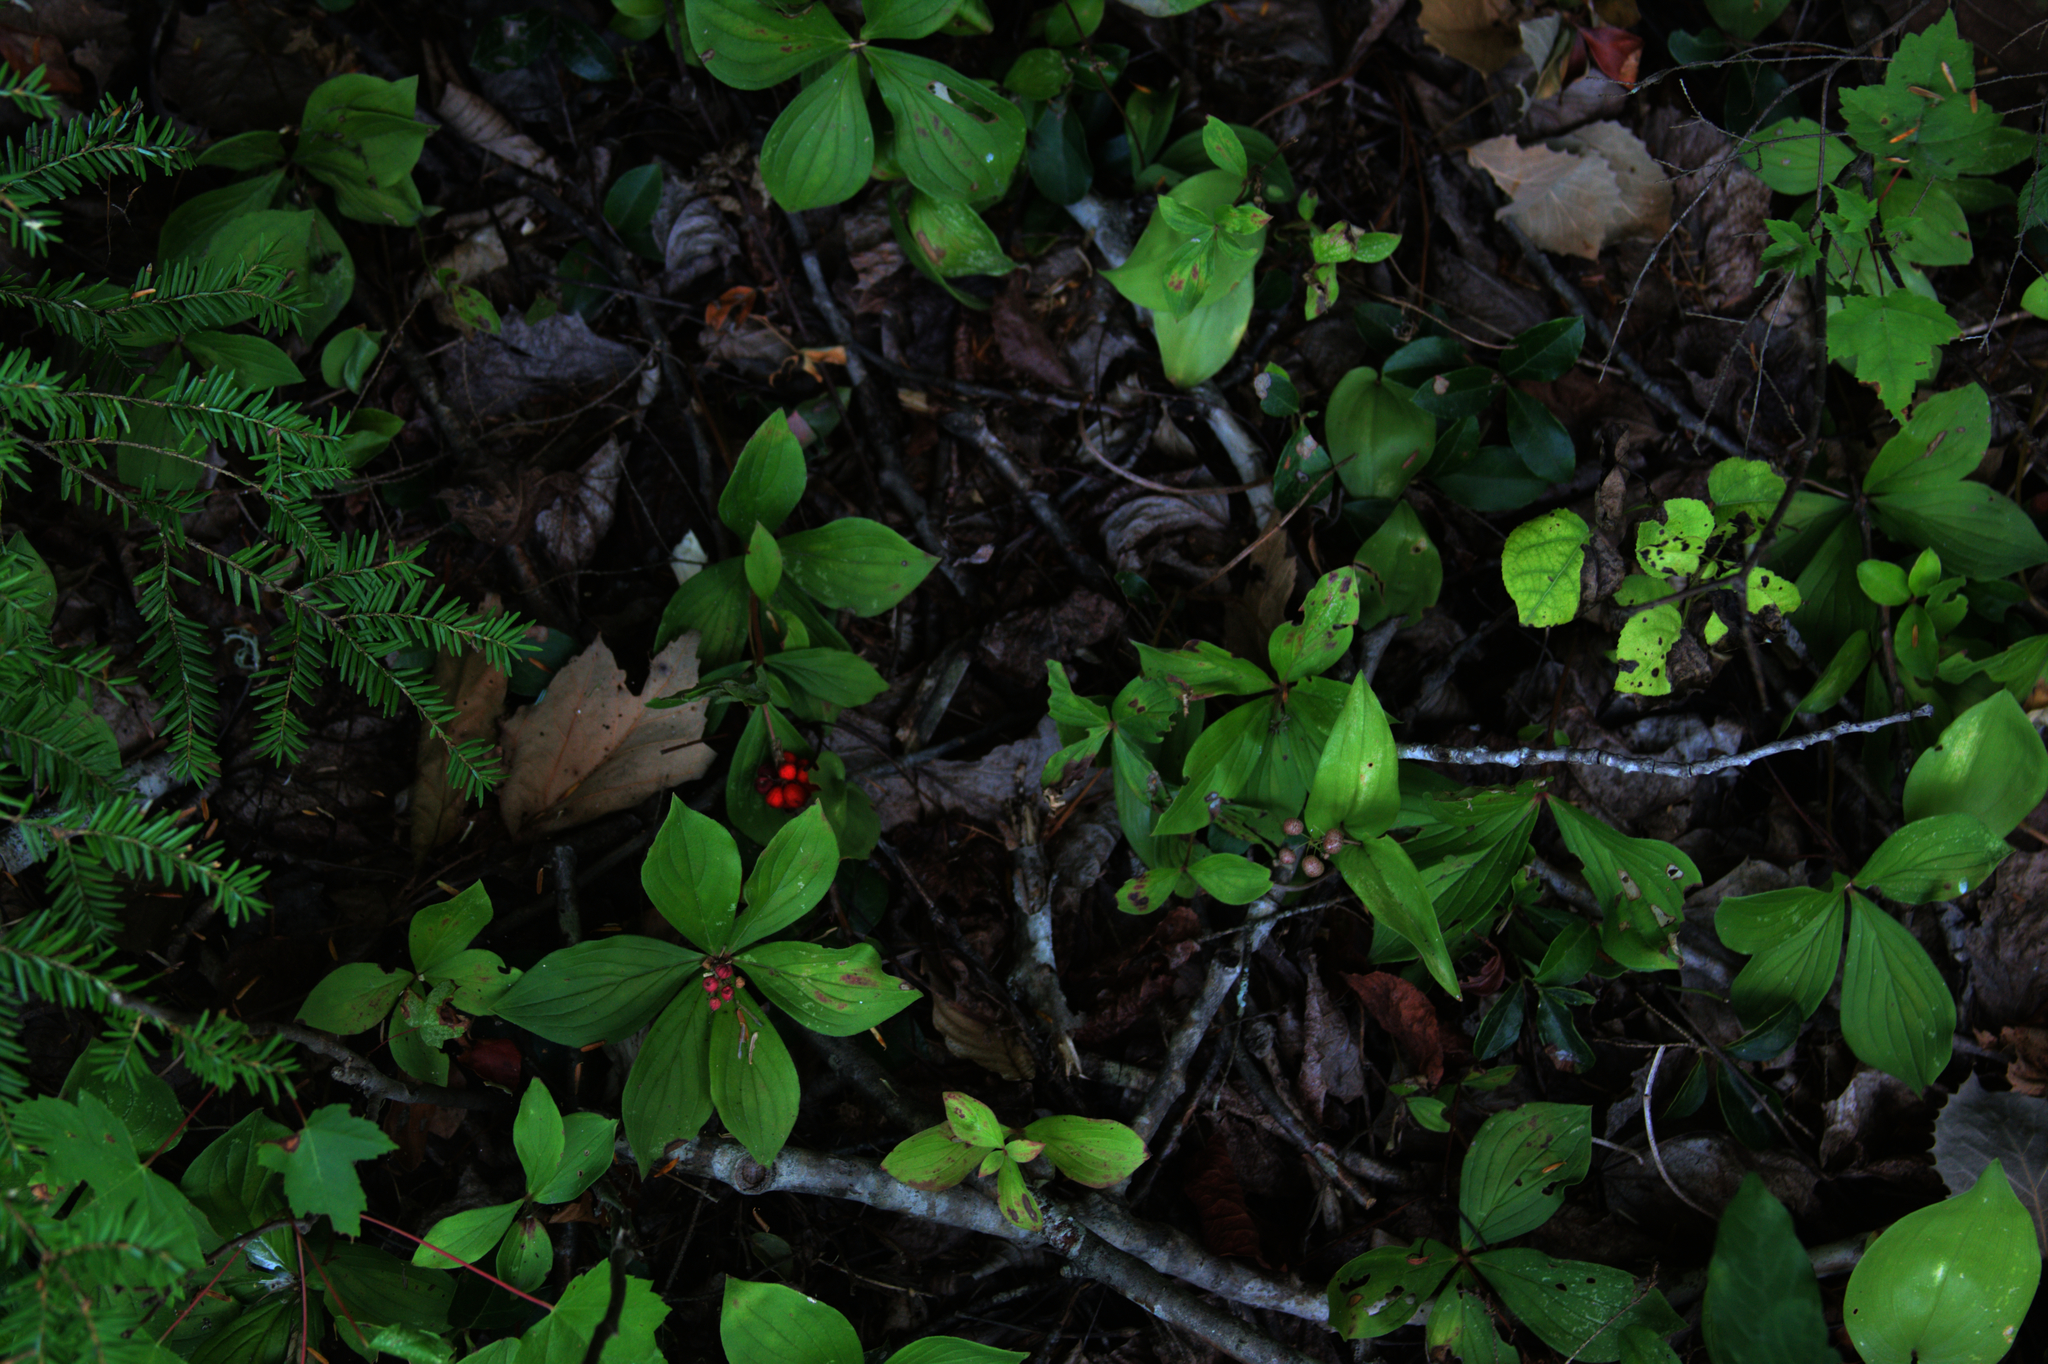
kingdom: Plantae
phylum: Tracheophyta
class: Magnoliopsida
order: Cornales
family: Cornaceae
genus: Cornus
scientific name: Cornus canadensis
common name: Creeping dogwood
